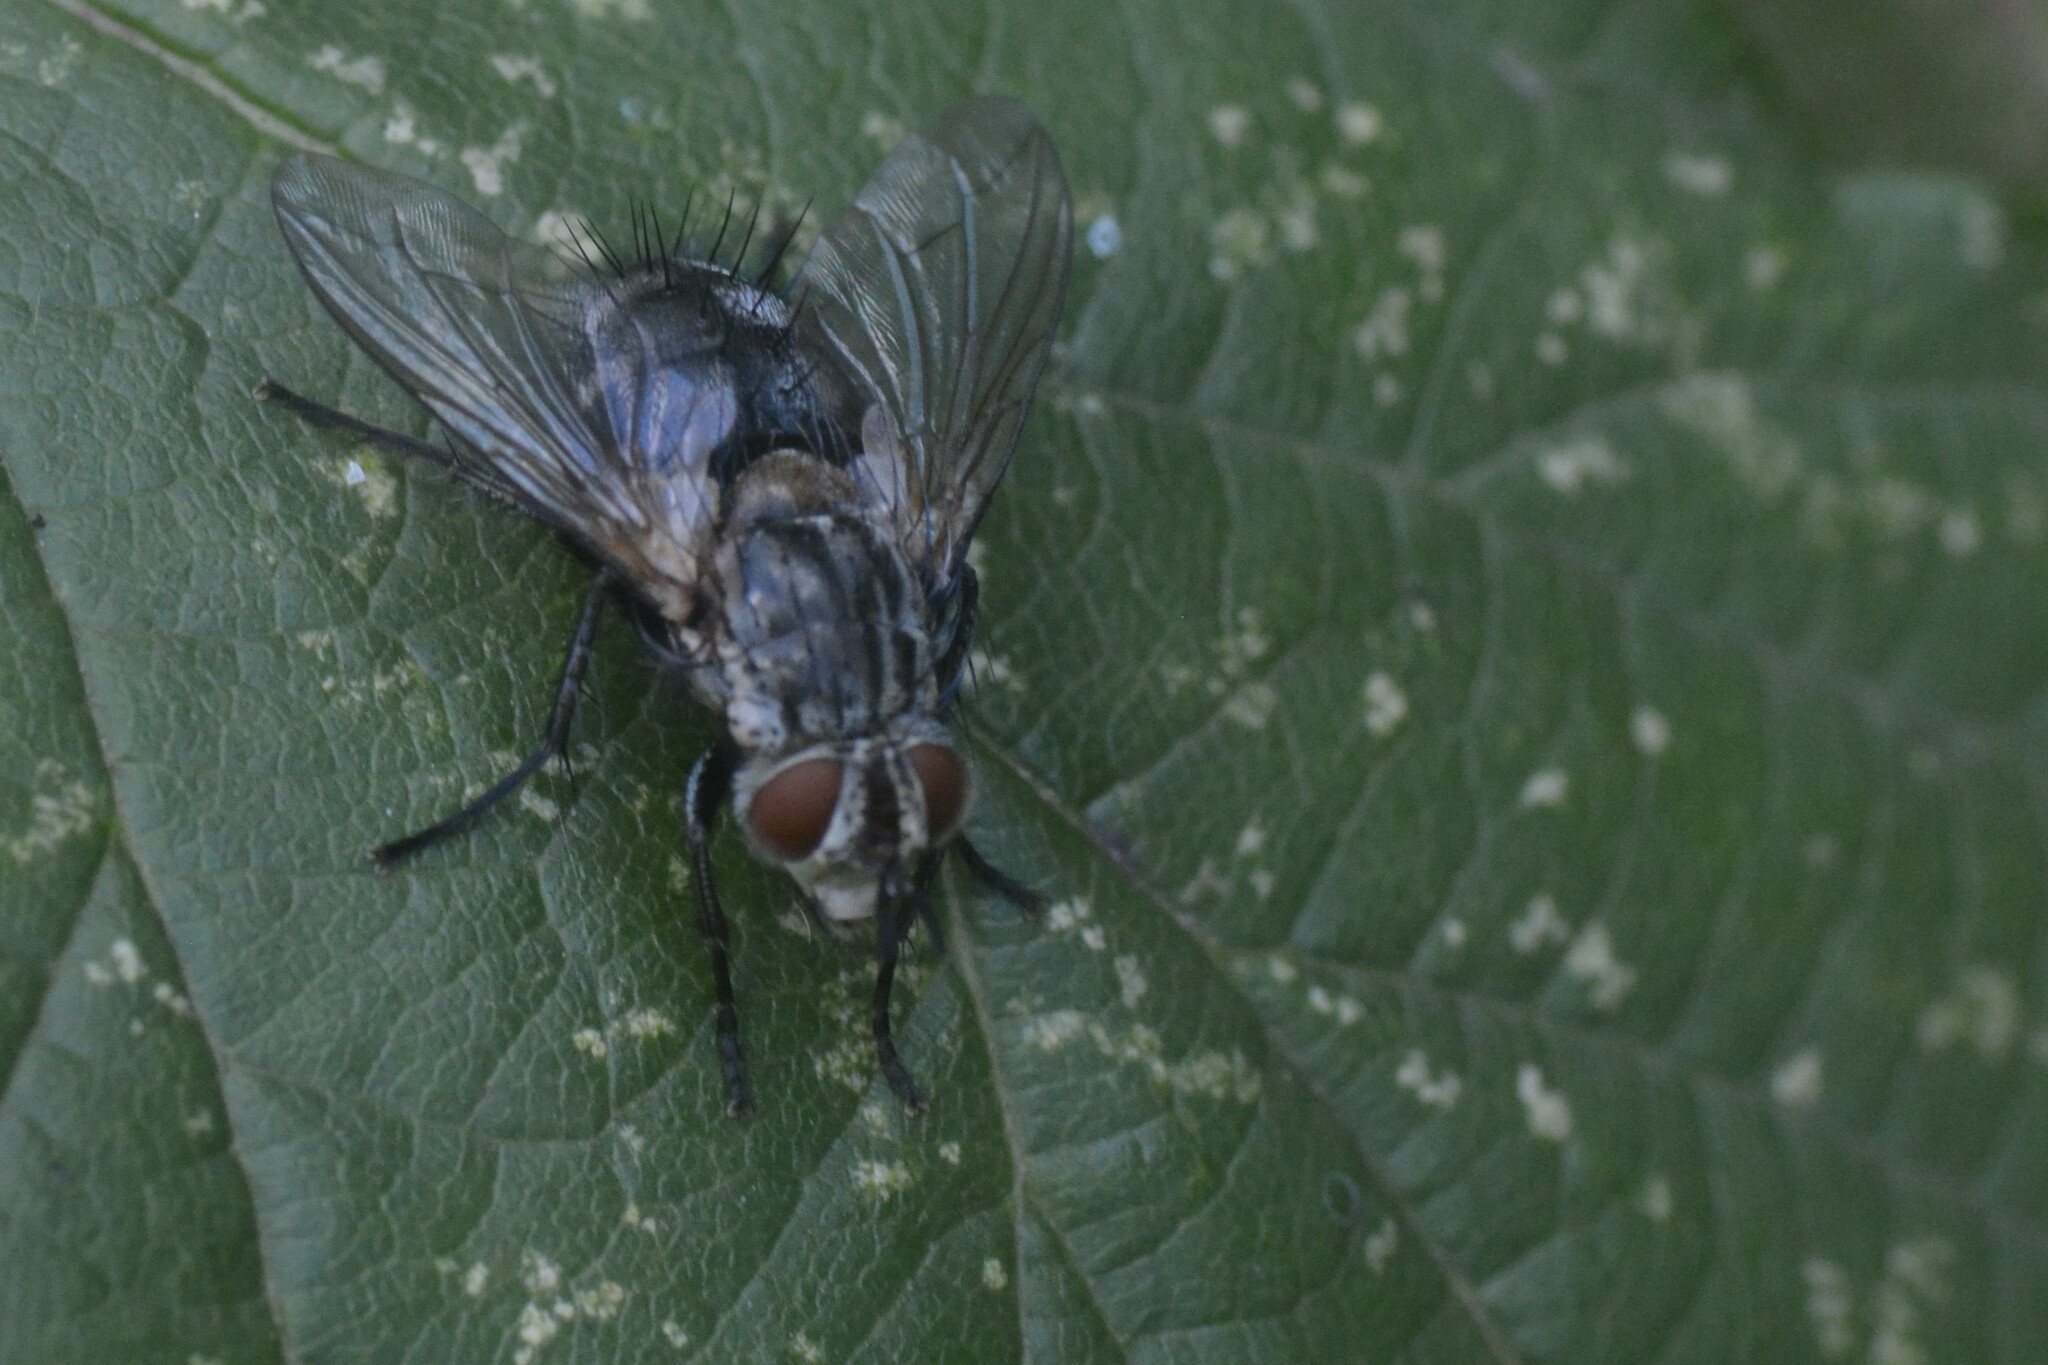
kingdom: Animalia
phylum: Arthropoda
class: Insecta
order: Diptera
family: Tachinidae
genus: Linnaemya
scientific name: Linnaemya picta
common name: Tachinid fly
